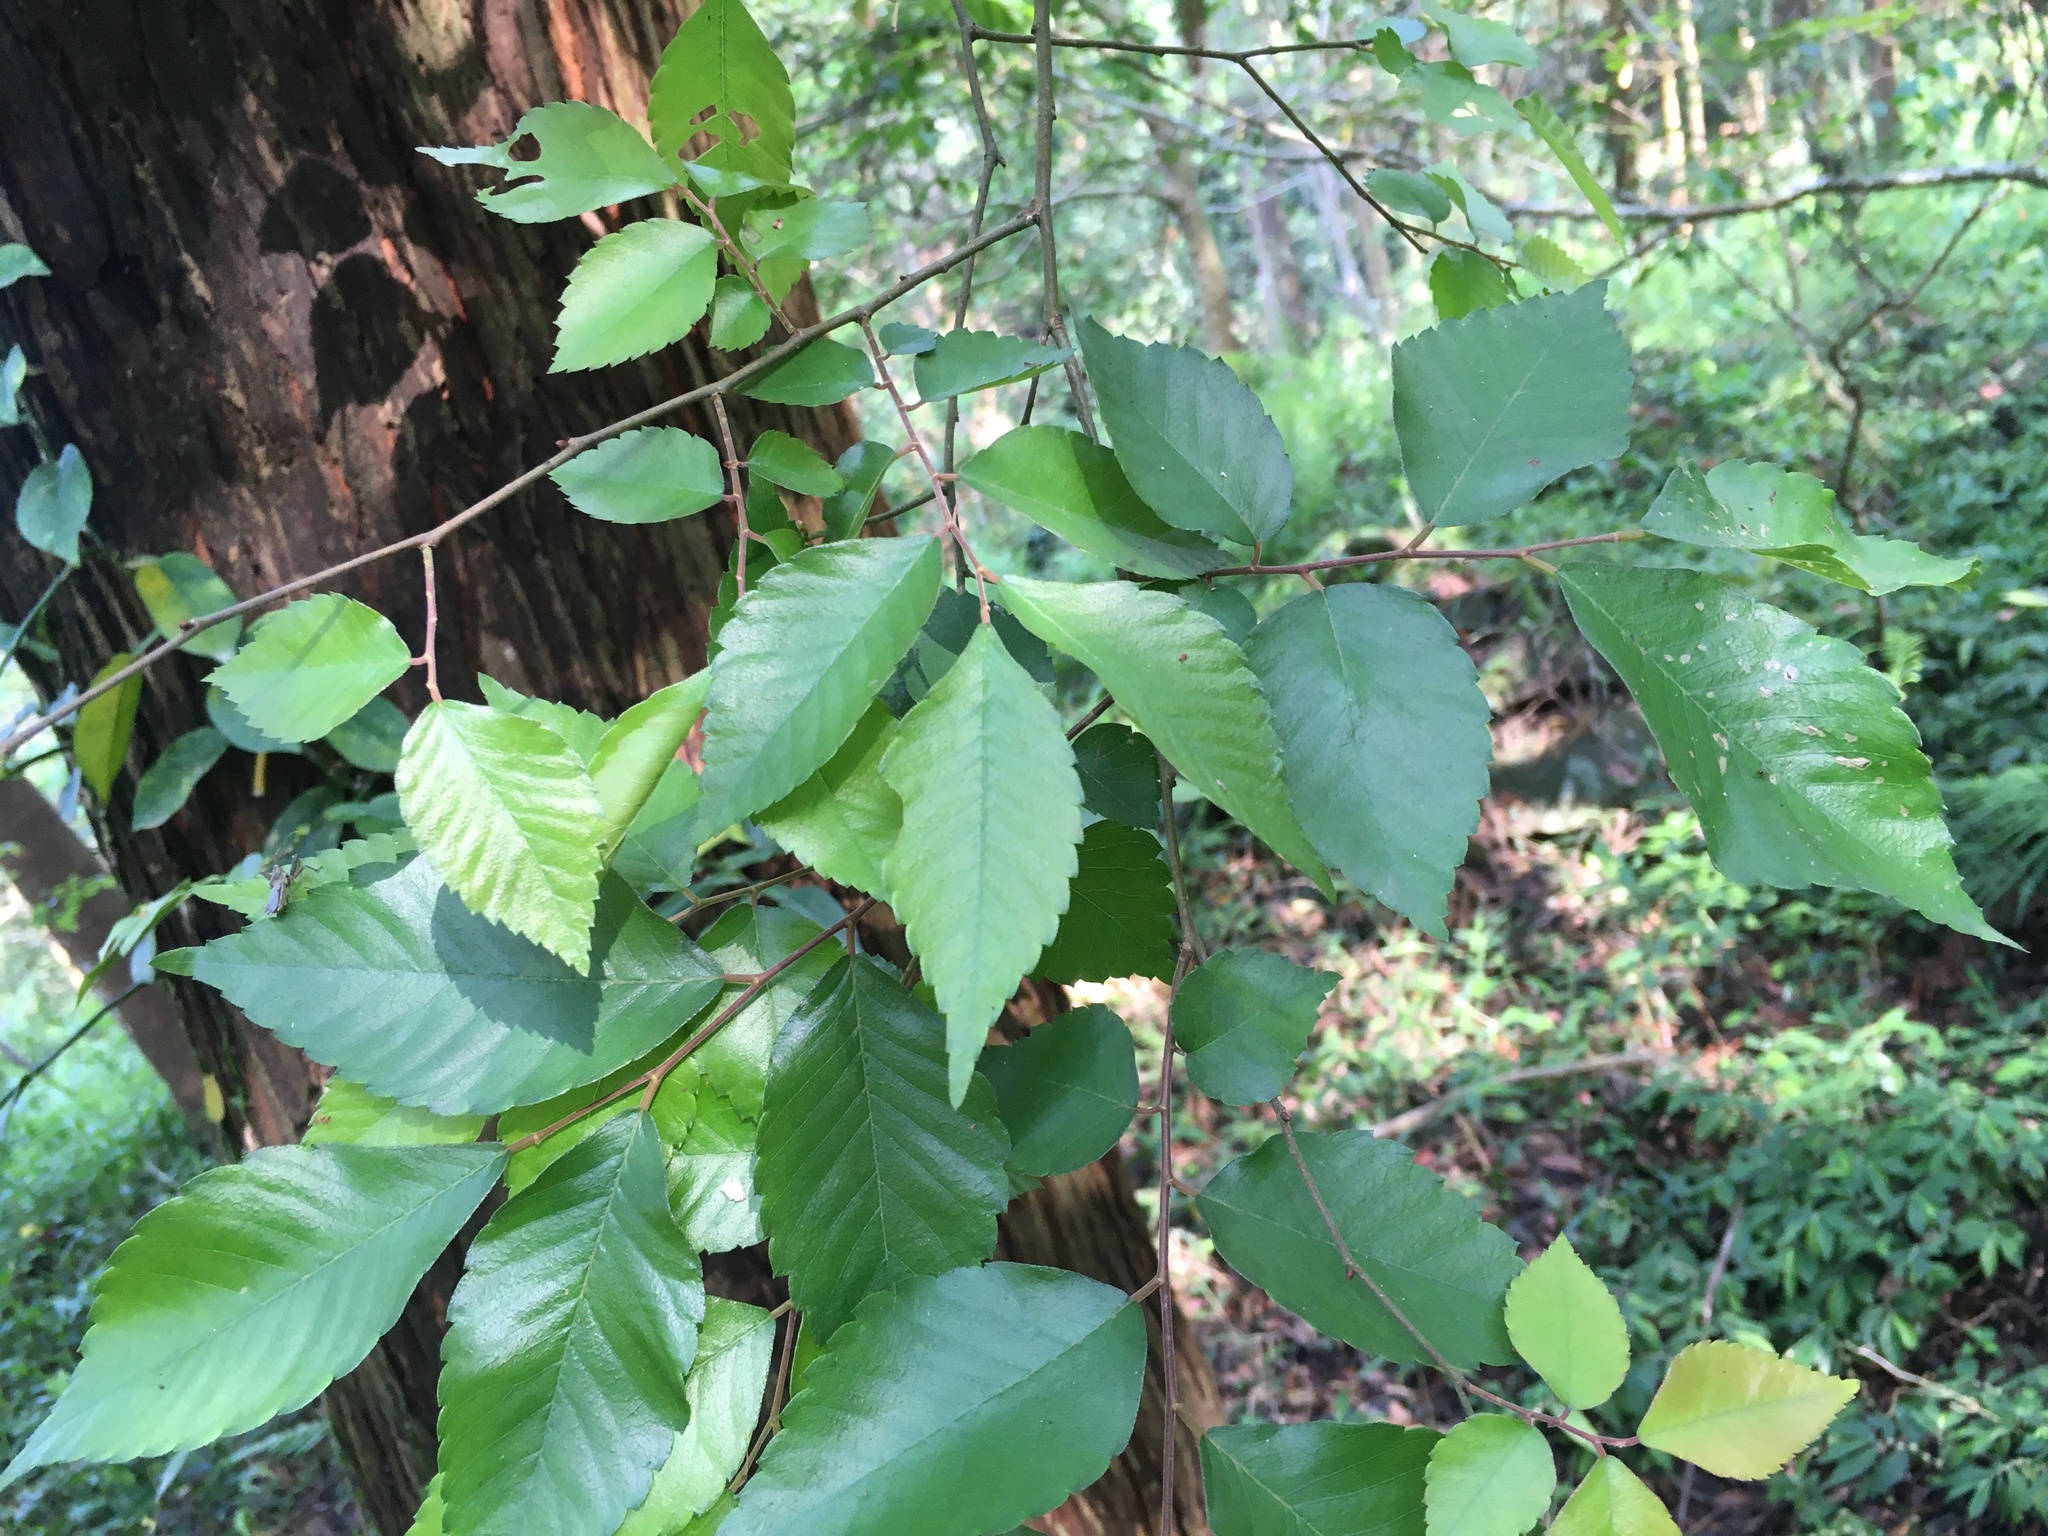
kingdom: Plantae
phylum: Tracheophyta
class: Magnoliopsida
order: Rosales
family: Ulmaceae
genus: Zelkova
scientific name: Zelkova serrata
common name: Japanese zelkova
